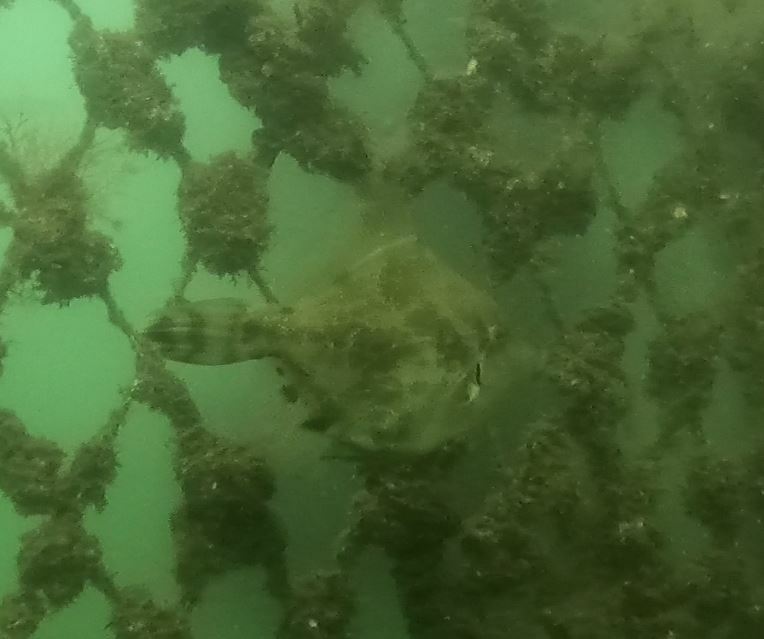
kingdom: Animalia
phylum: Chordata
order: Tetraodontiformes
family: Monacanthidae
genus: Monacanthus
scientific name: Monacanthus chinensis
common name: Centreboard leatherjacket
